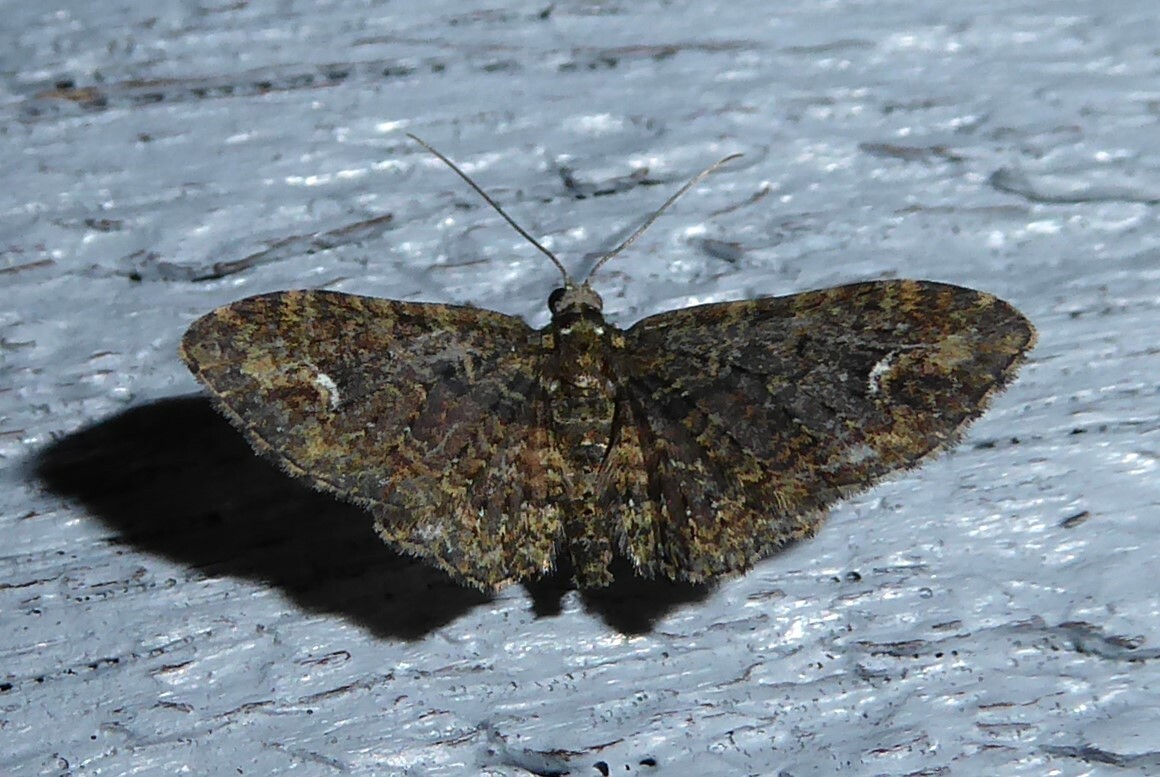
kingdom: Animalia
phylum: Arthropoda
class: Insecta
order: Lepidoptera
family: Geometridae
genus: Pasiphilodes
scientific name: Pasiphilodes testulata
